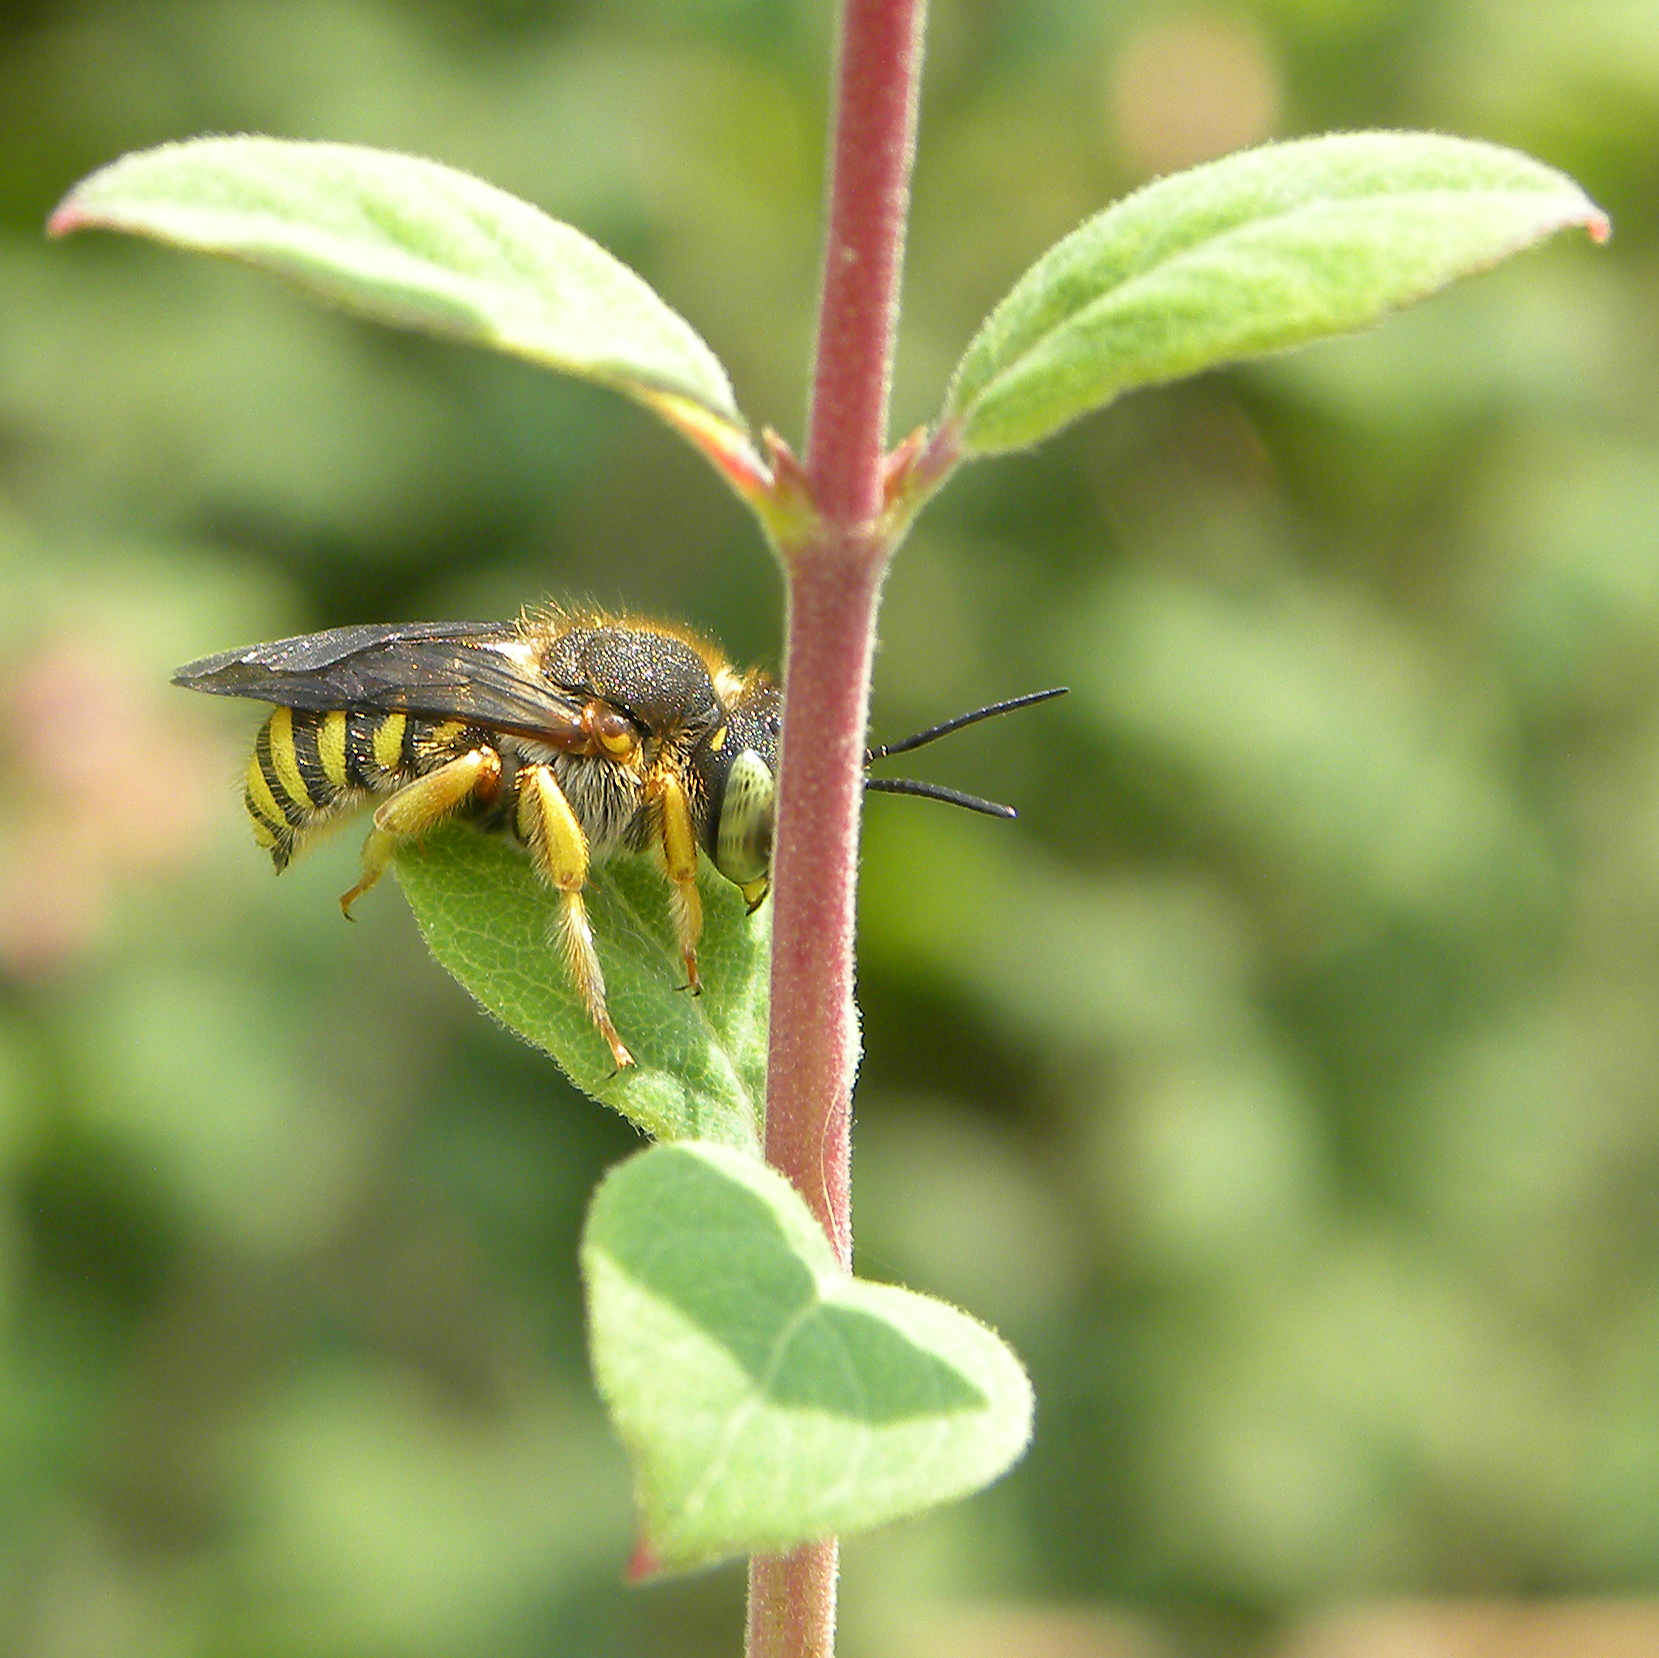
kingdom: Animalia
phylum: Arthropoda
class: Insecta
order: Hymenoptera
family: Megachilidae
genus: Anthidium
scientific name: Anthidium oblongatum
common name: Oblong wool carder bee
